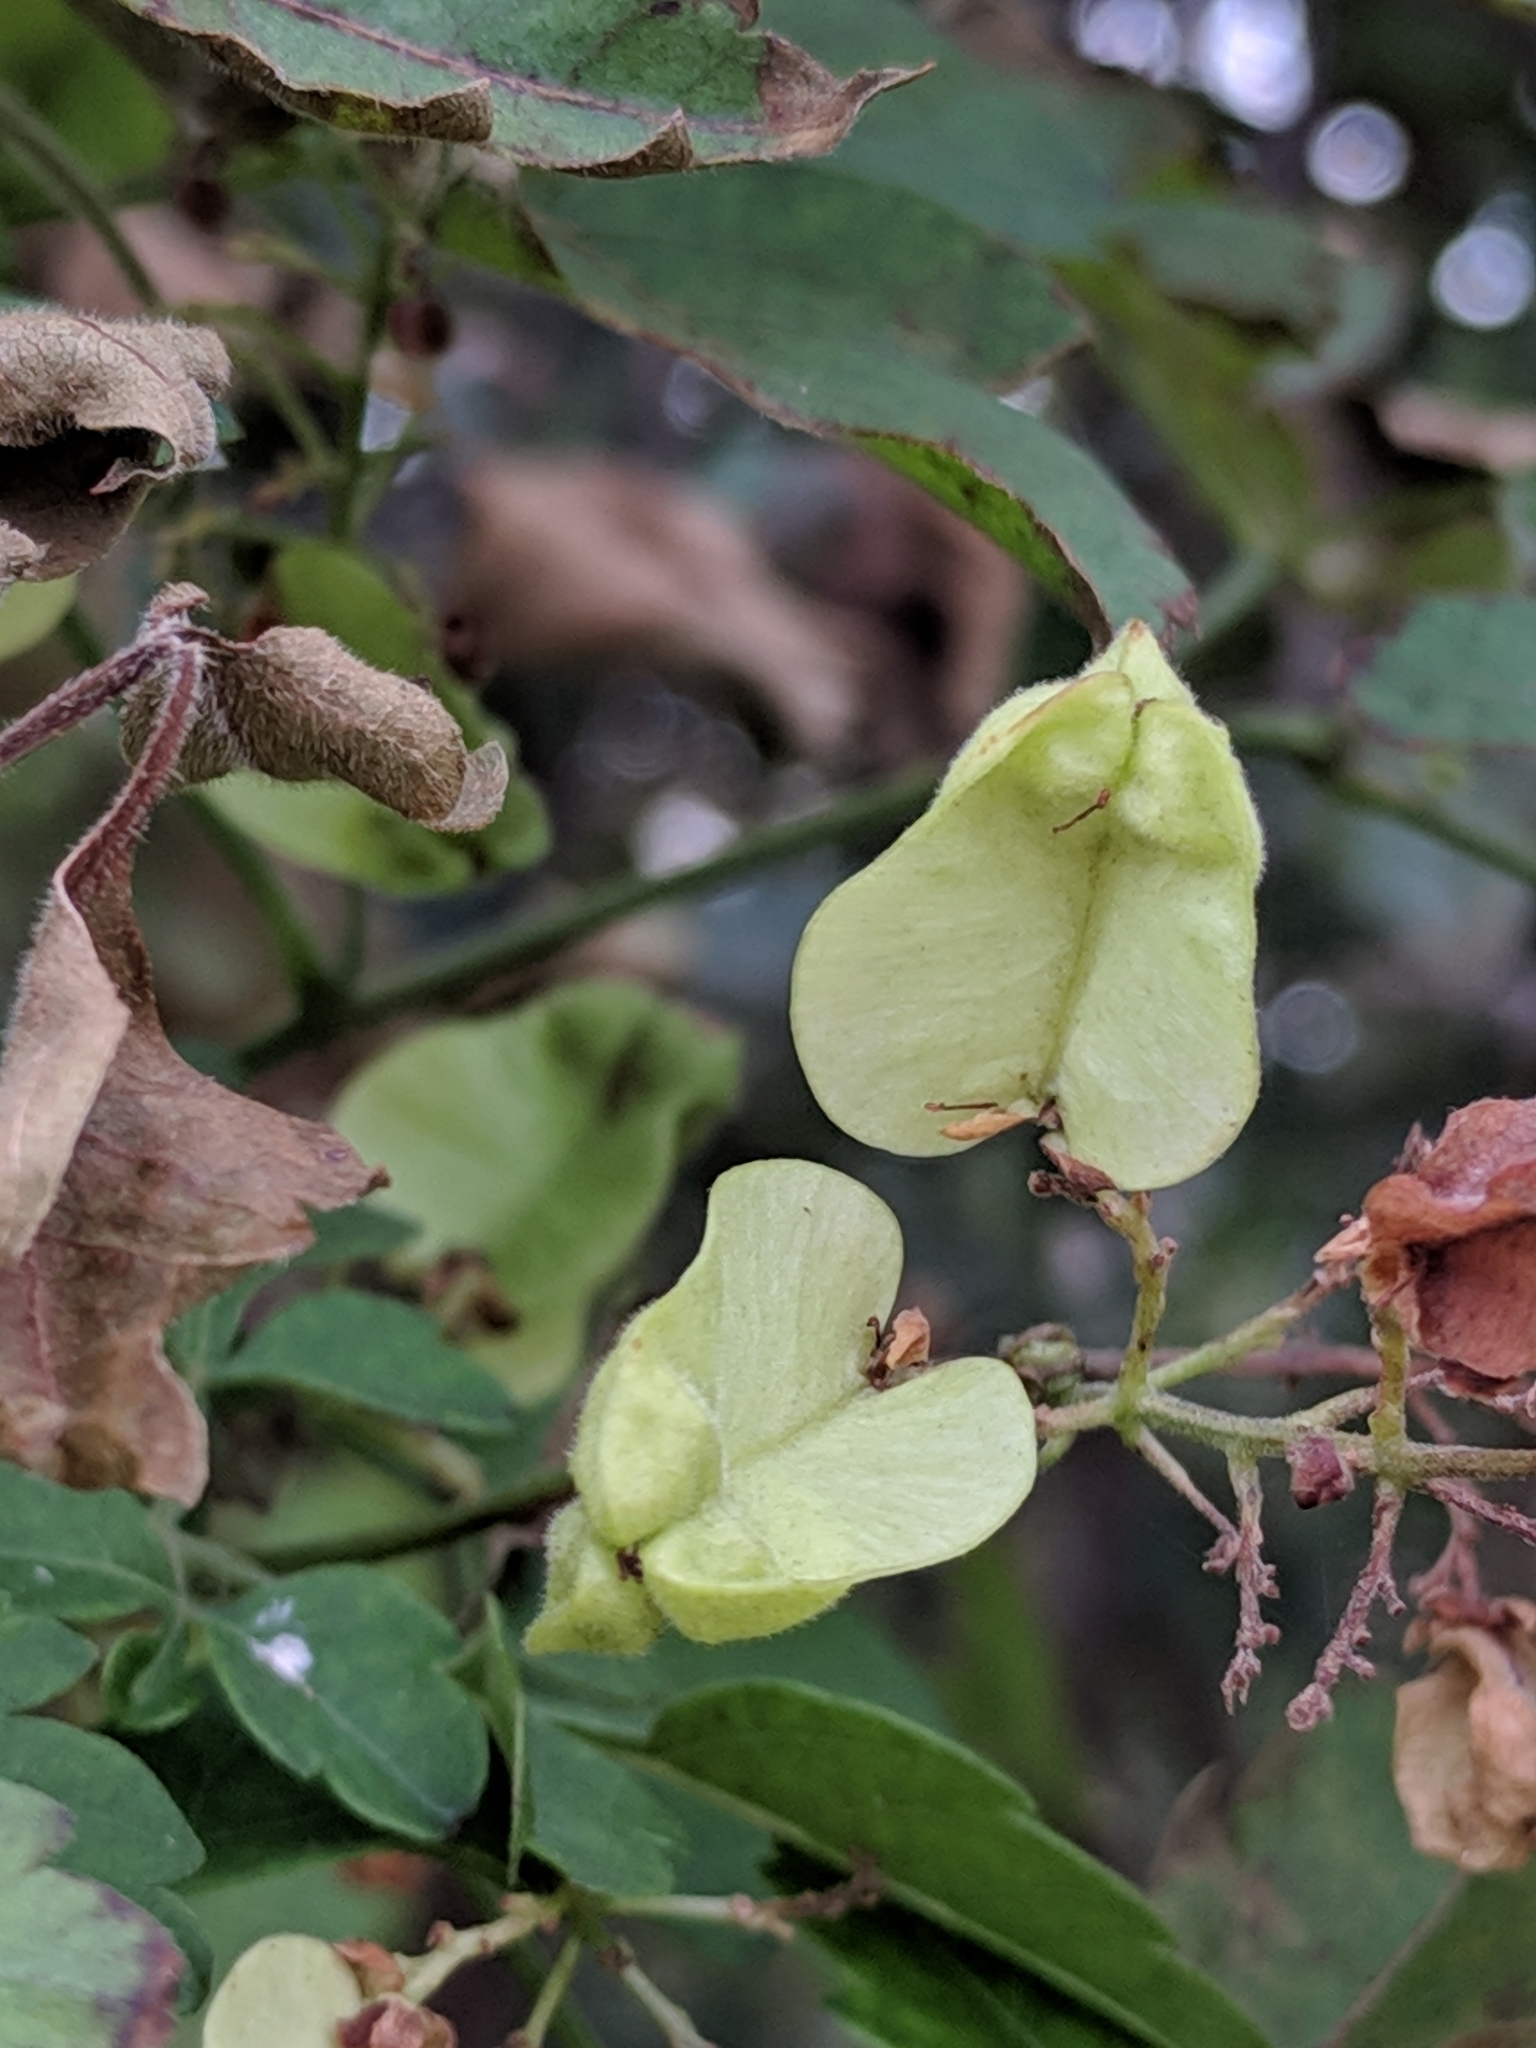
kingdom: Plantae
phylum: Tracheophyta
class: Magnoliopsida
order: Sapindales
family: Sapindaceae
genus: Serjania
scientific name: Serjania brachycarpa
